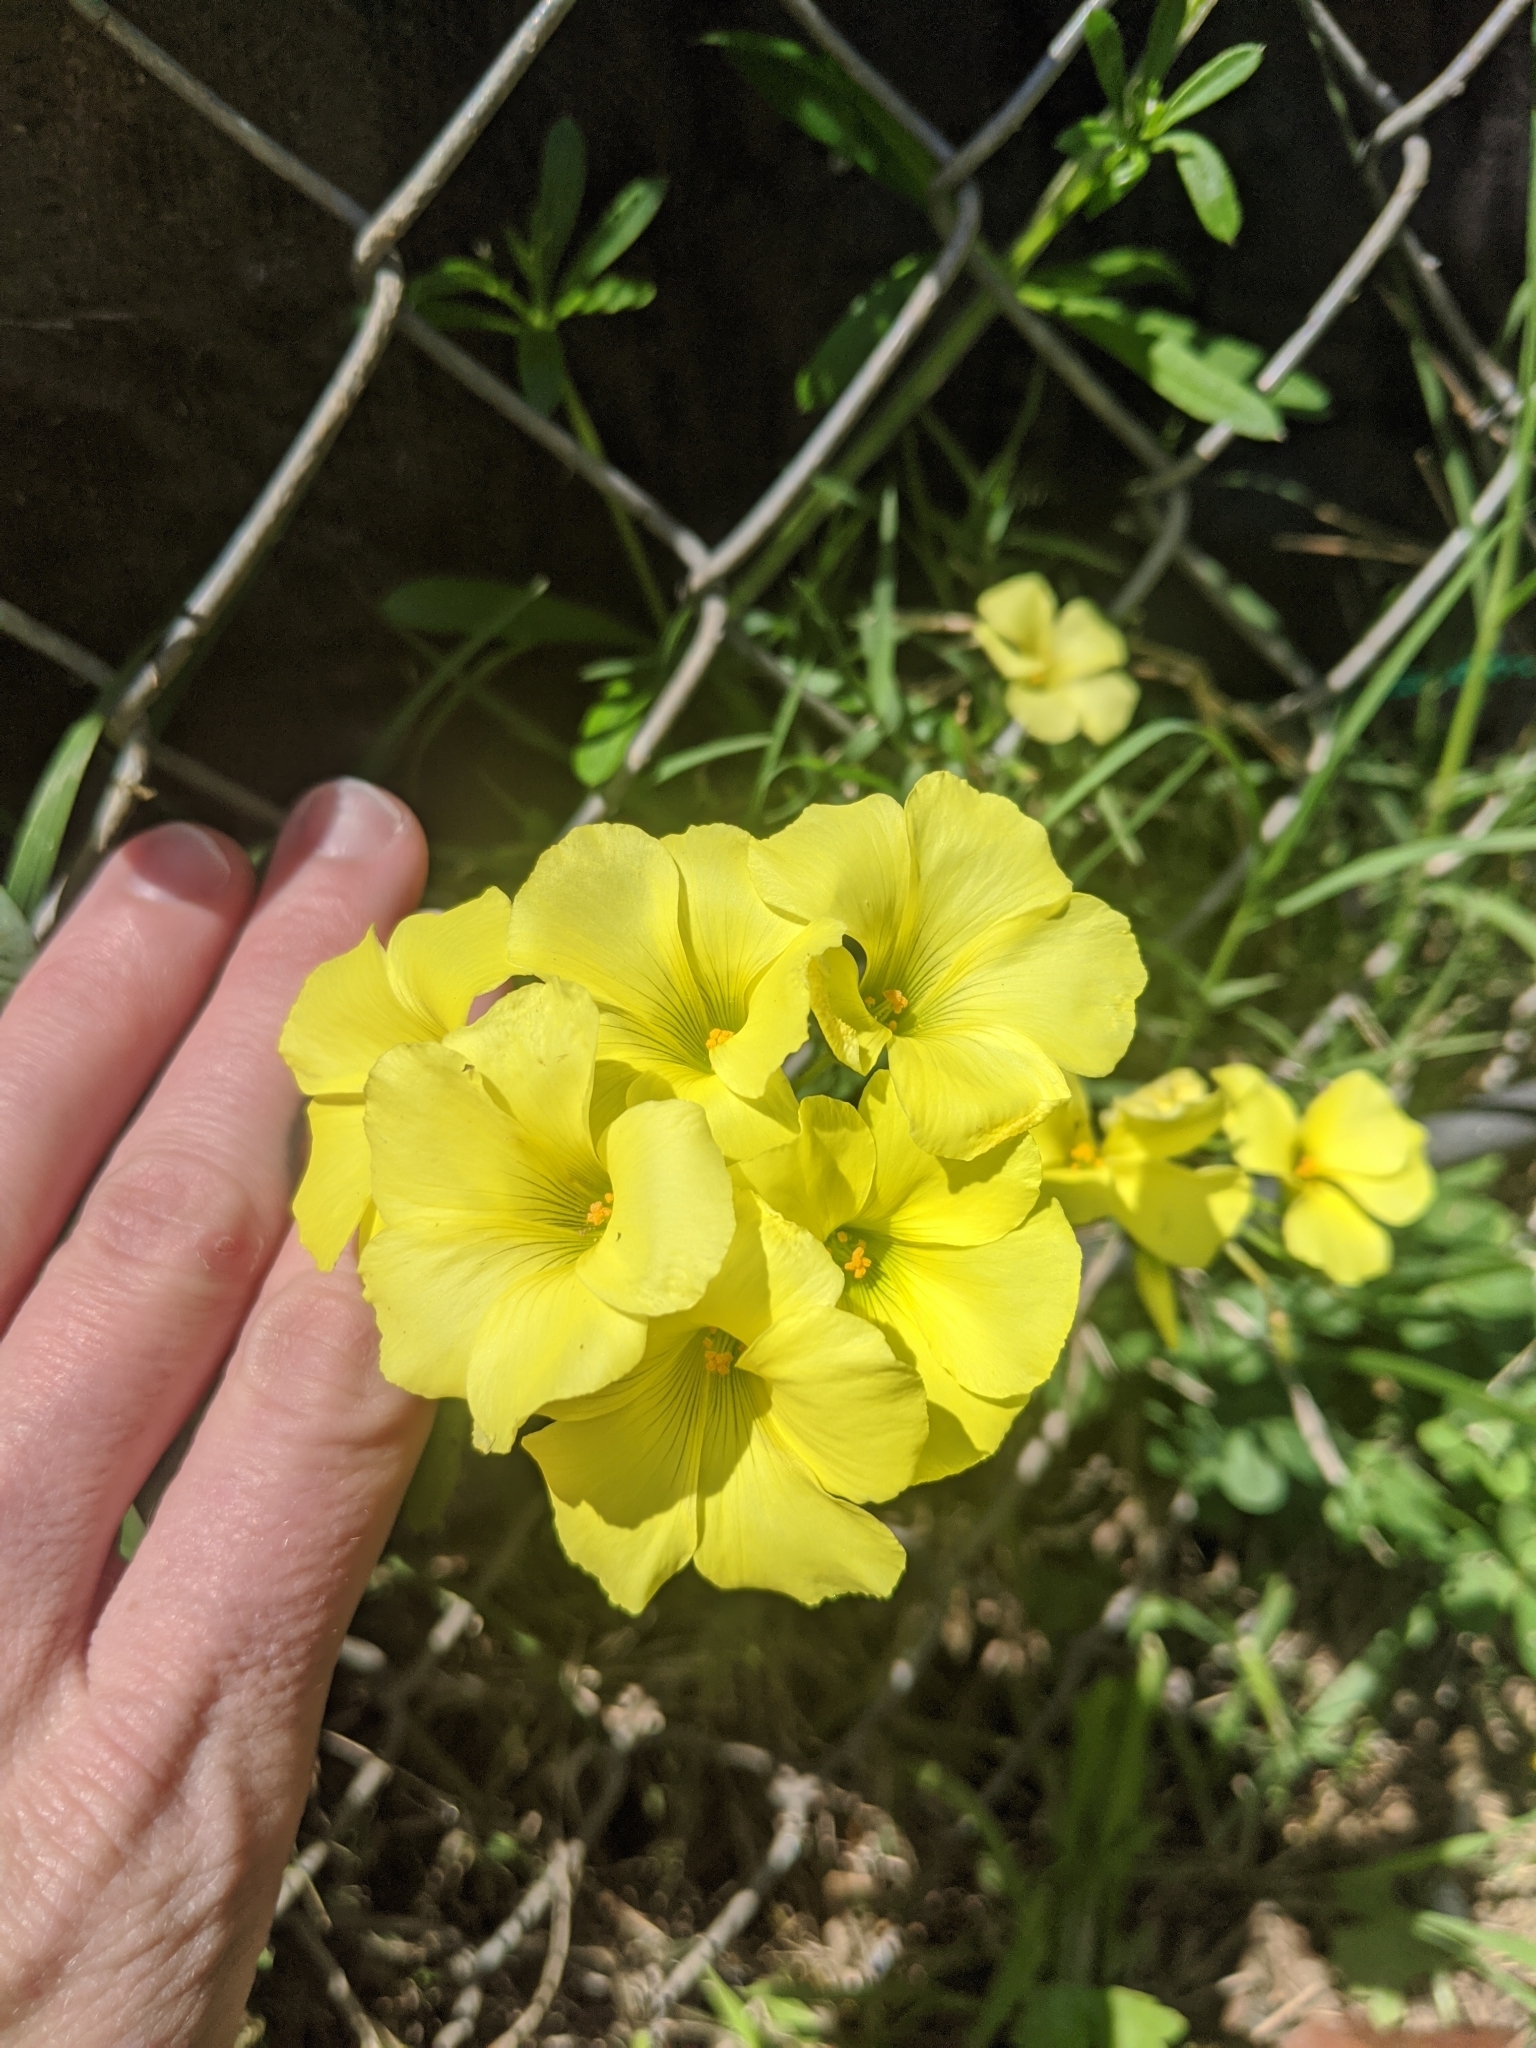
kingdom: Plantae
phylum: Tracheophyta
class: Magnoliopsida
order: Oxalidales
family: Oxalidaceae
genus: Oxalis
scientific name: Oxalis pes-caprae
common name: Bermuda-buttercup
